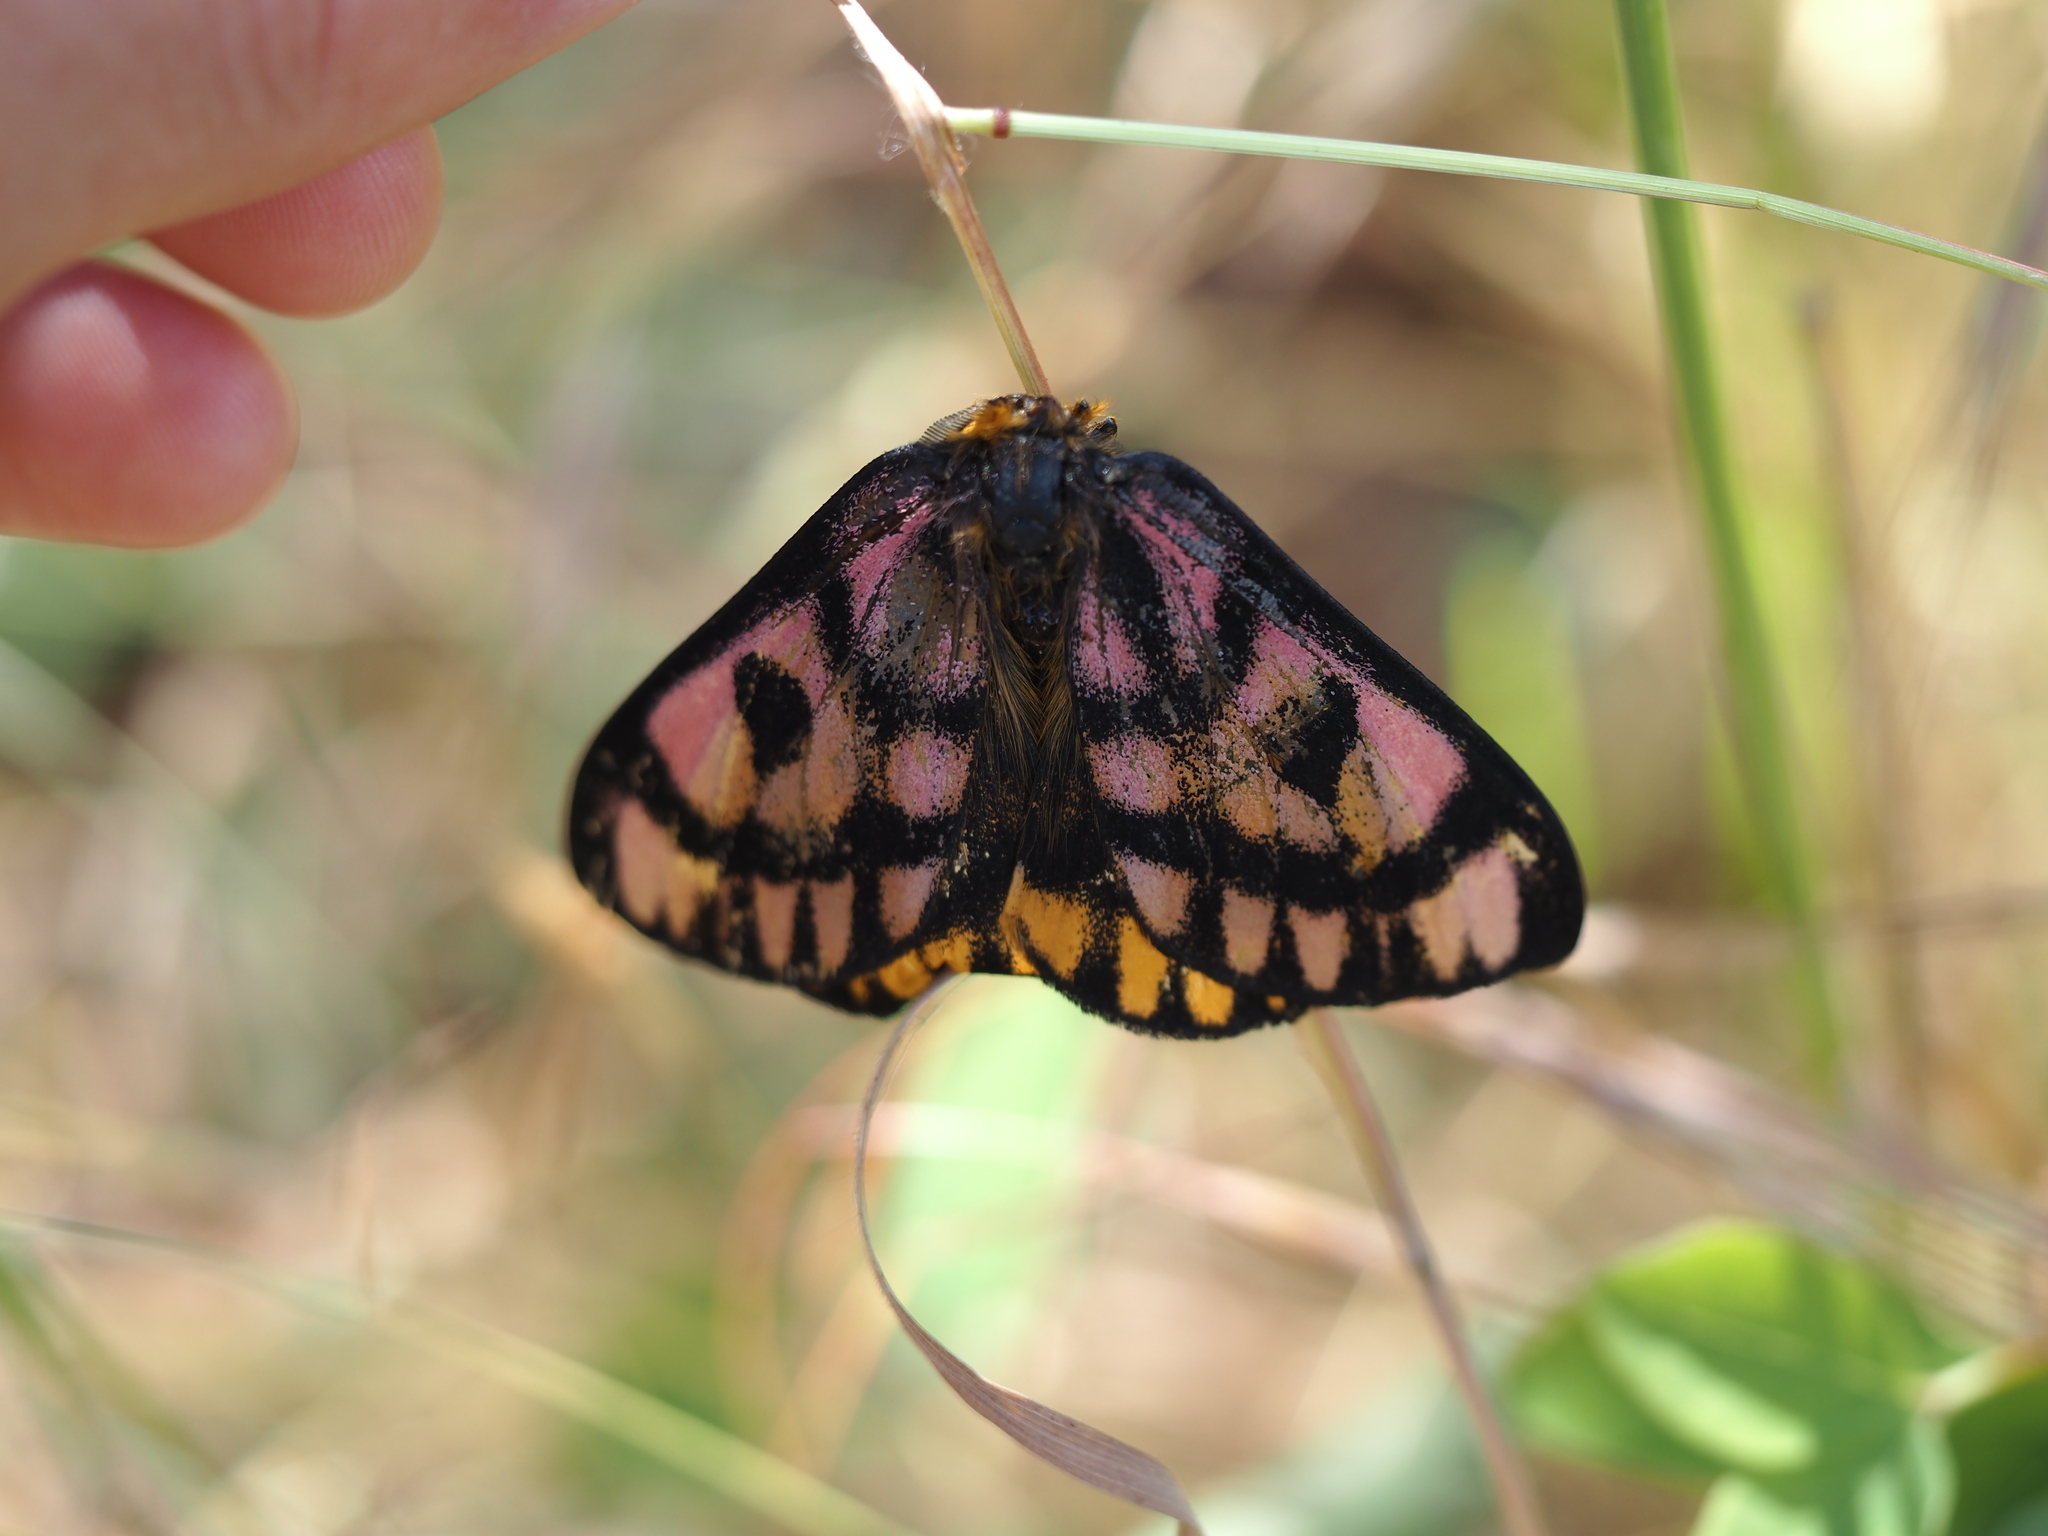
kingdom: Animalia
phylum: Arthropoda
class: Insecta
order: Lepidoptera
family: Saturniidae
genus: Hemileuca
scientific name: Hemileuca eglanterina
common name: Western sheepmoth
